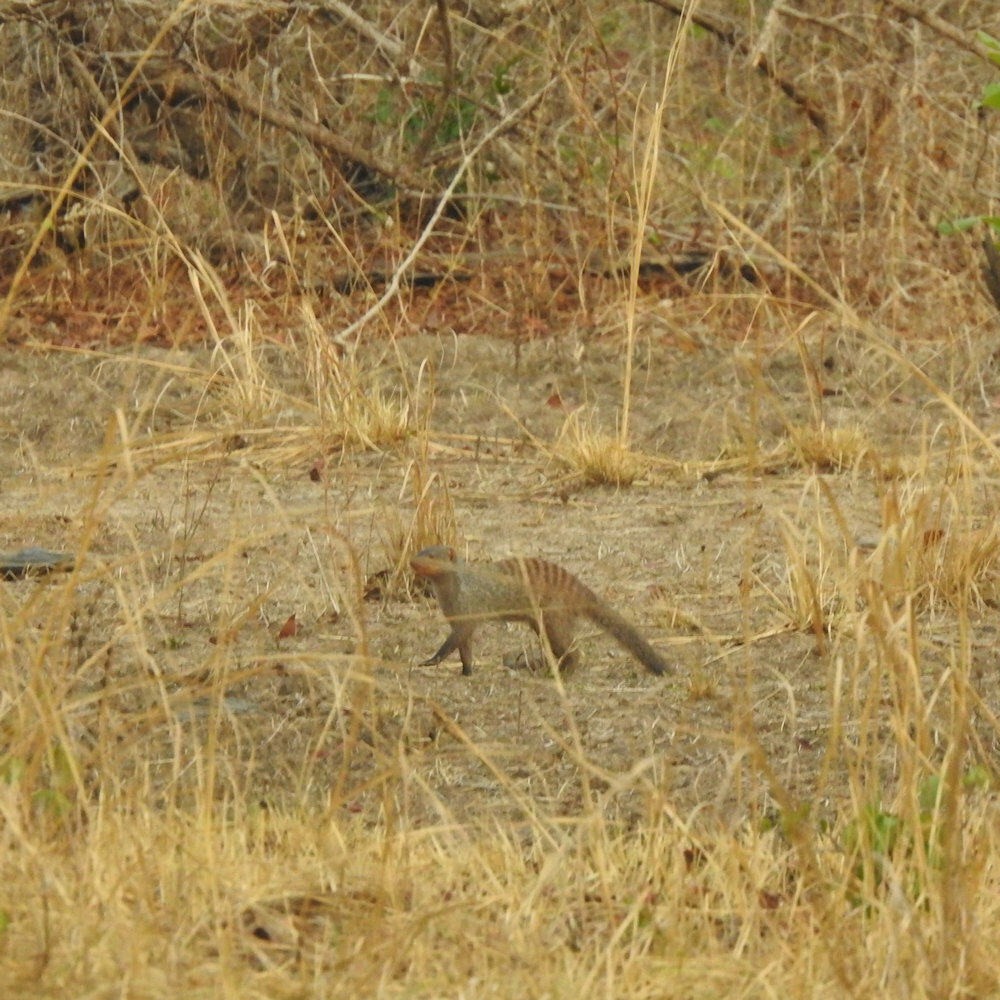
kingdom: Animalia
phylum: Chordata
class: Mammalia
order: Carnivora
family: Herpestidae
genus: Mungos
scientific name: Mungos mungo
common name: Banded mongoose
